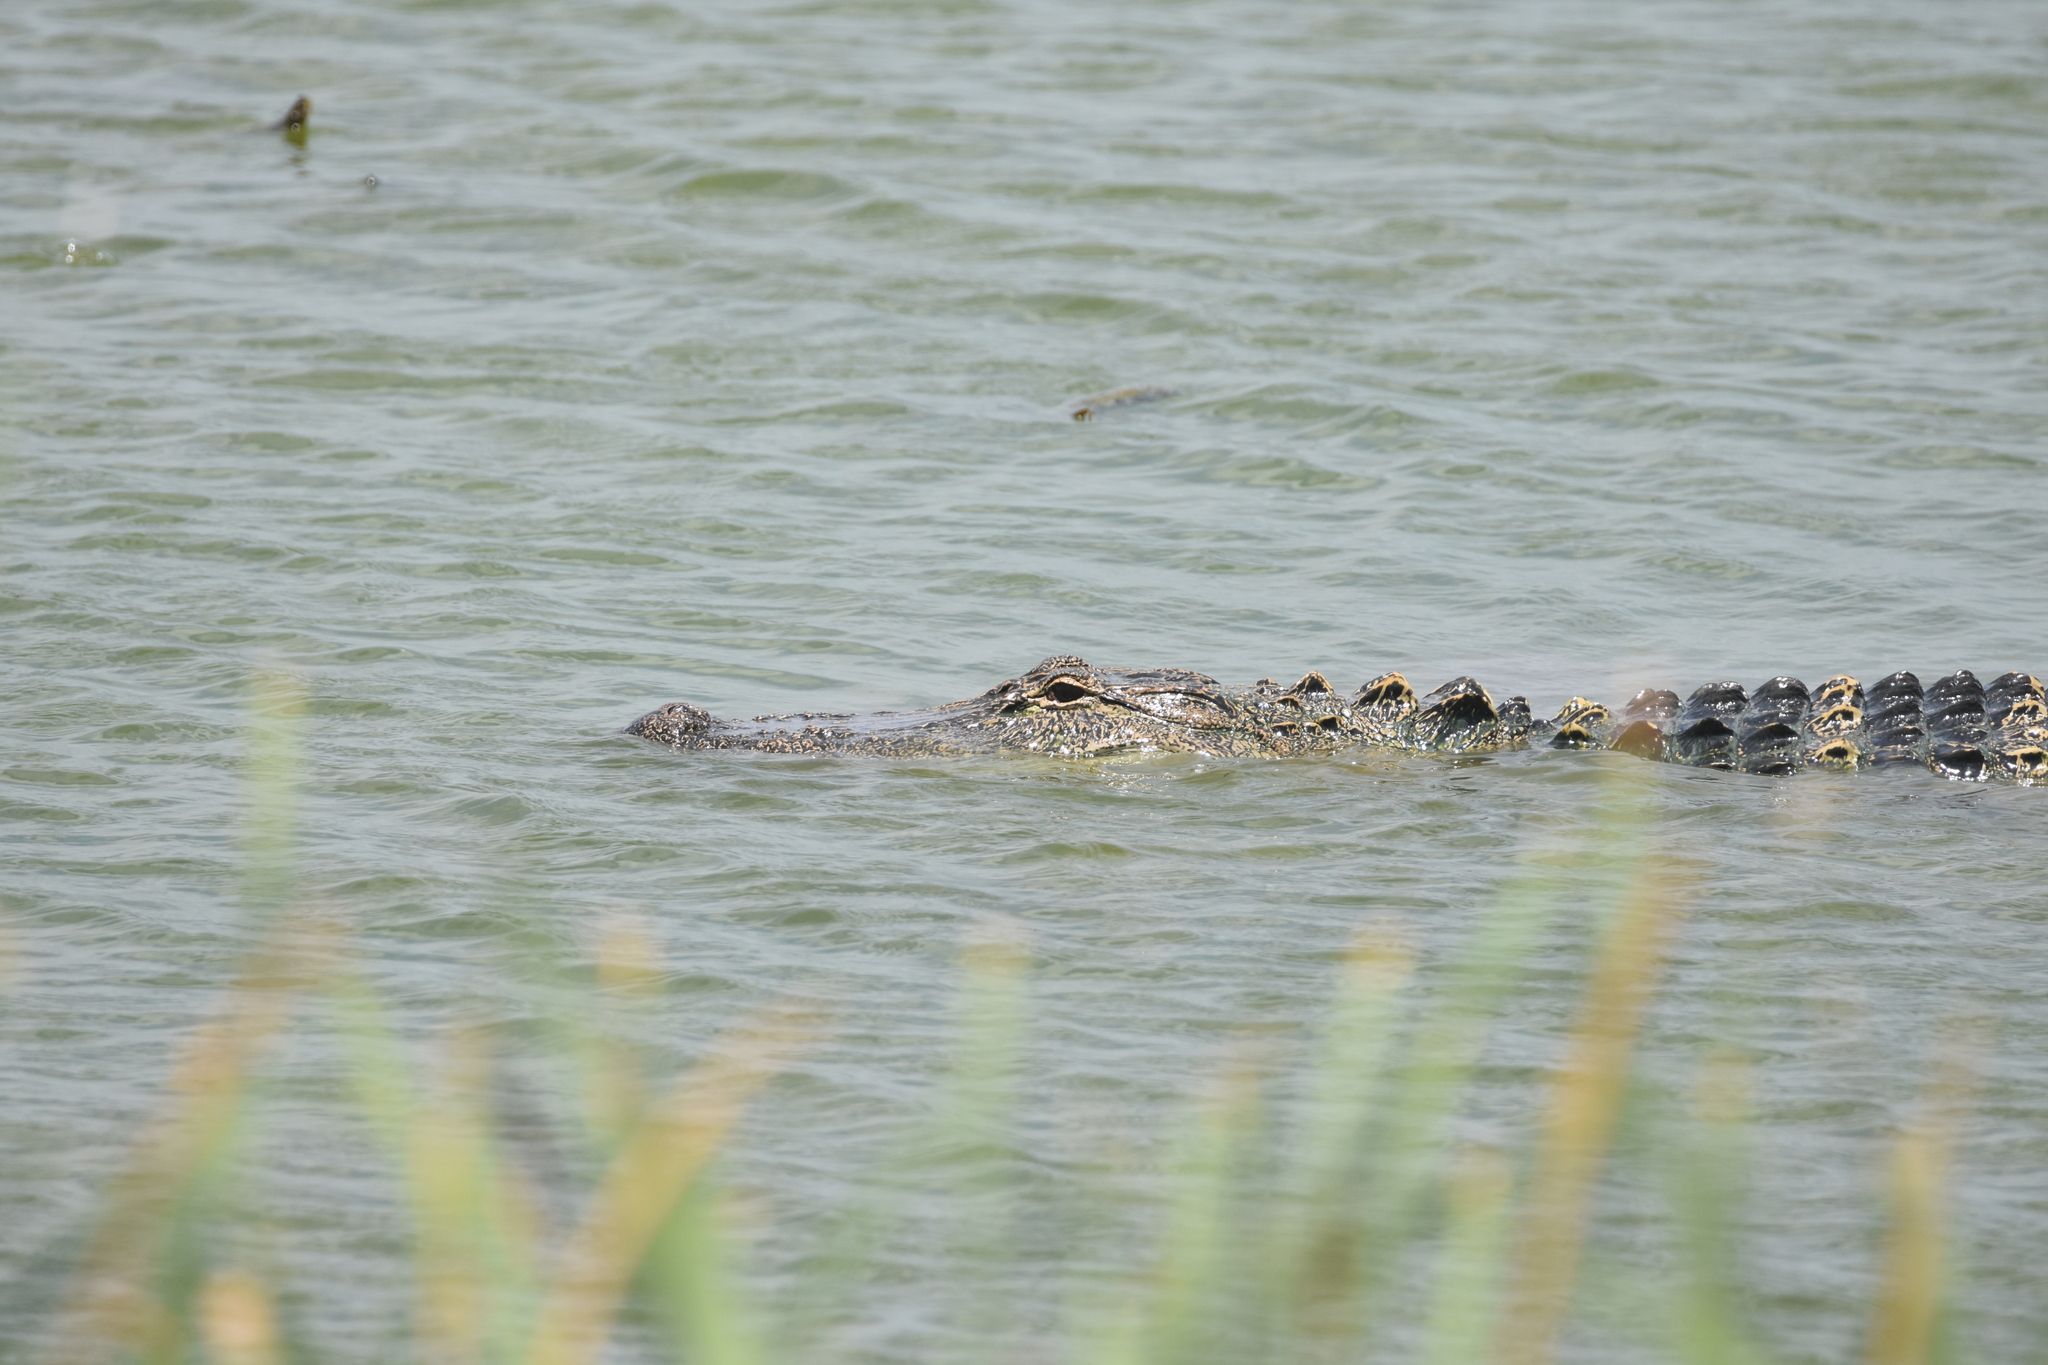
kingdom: Animalia
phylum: Chordata
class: Crocodylia
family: Alligatoridae
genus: Alligator
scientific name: Alligator mississippiensis
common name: American alligator
